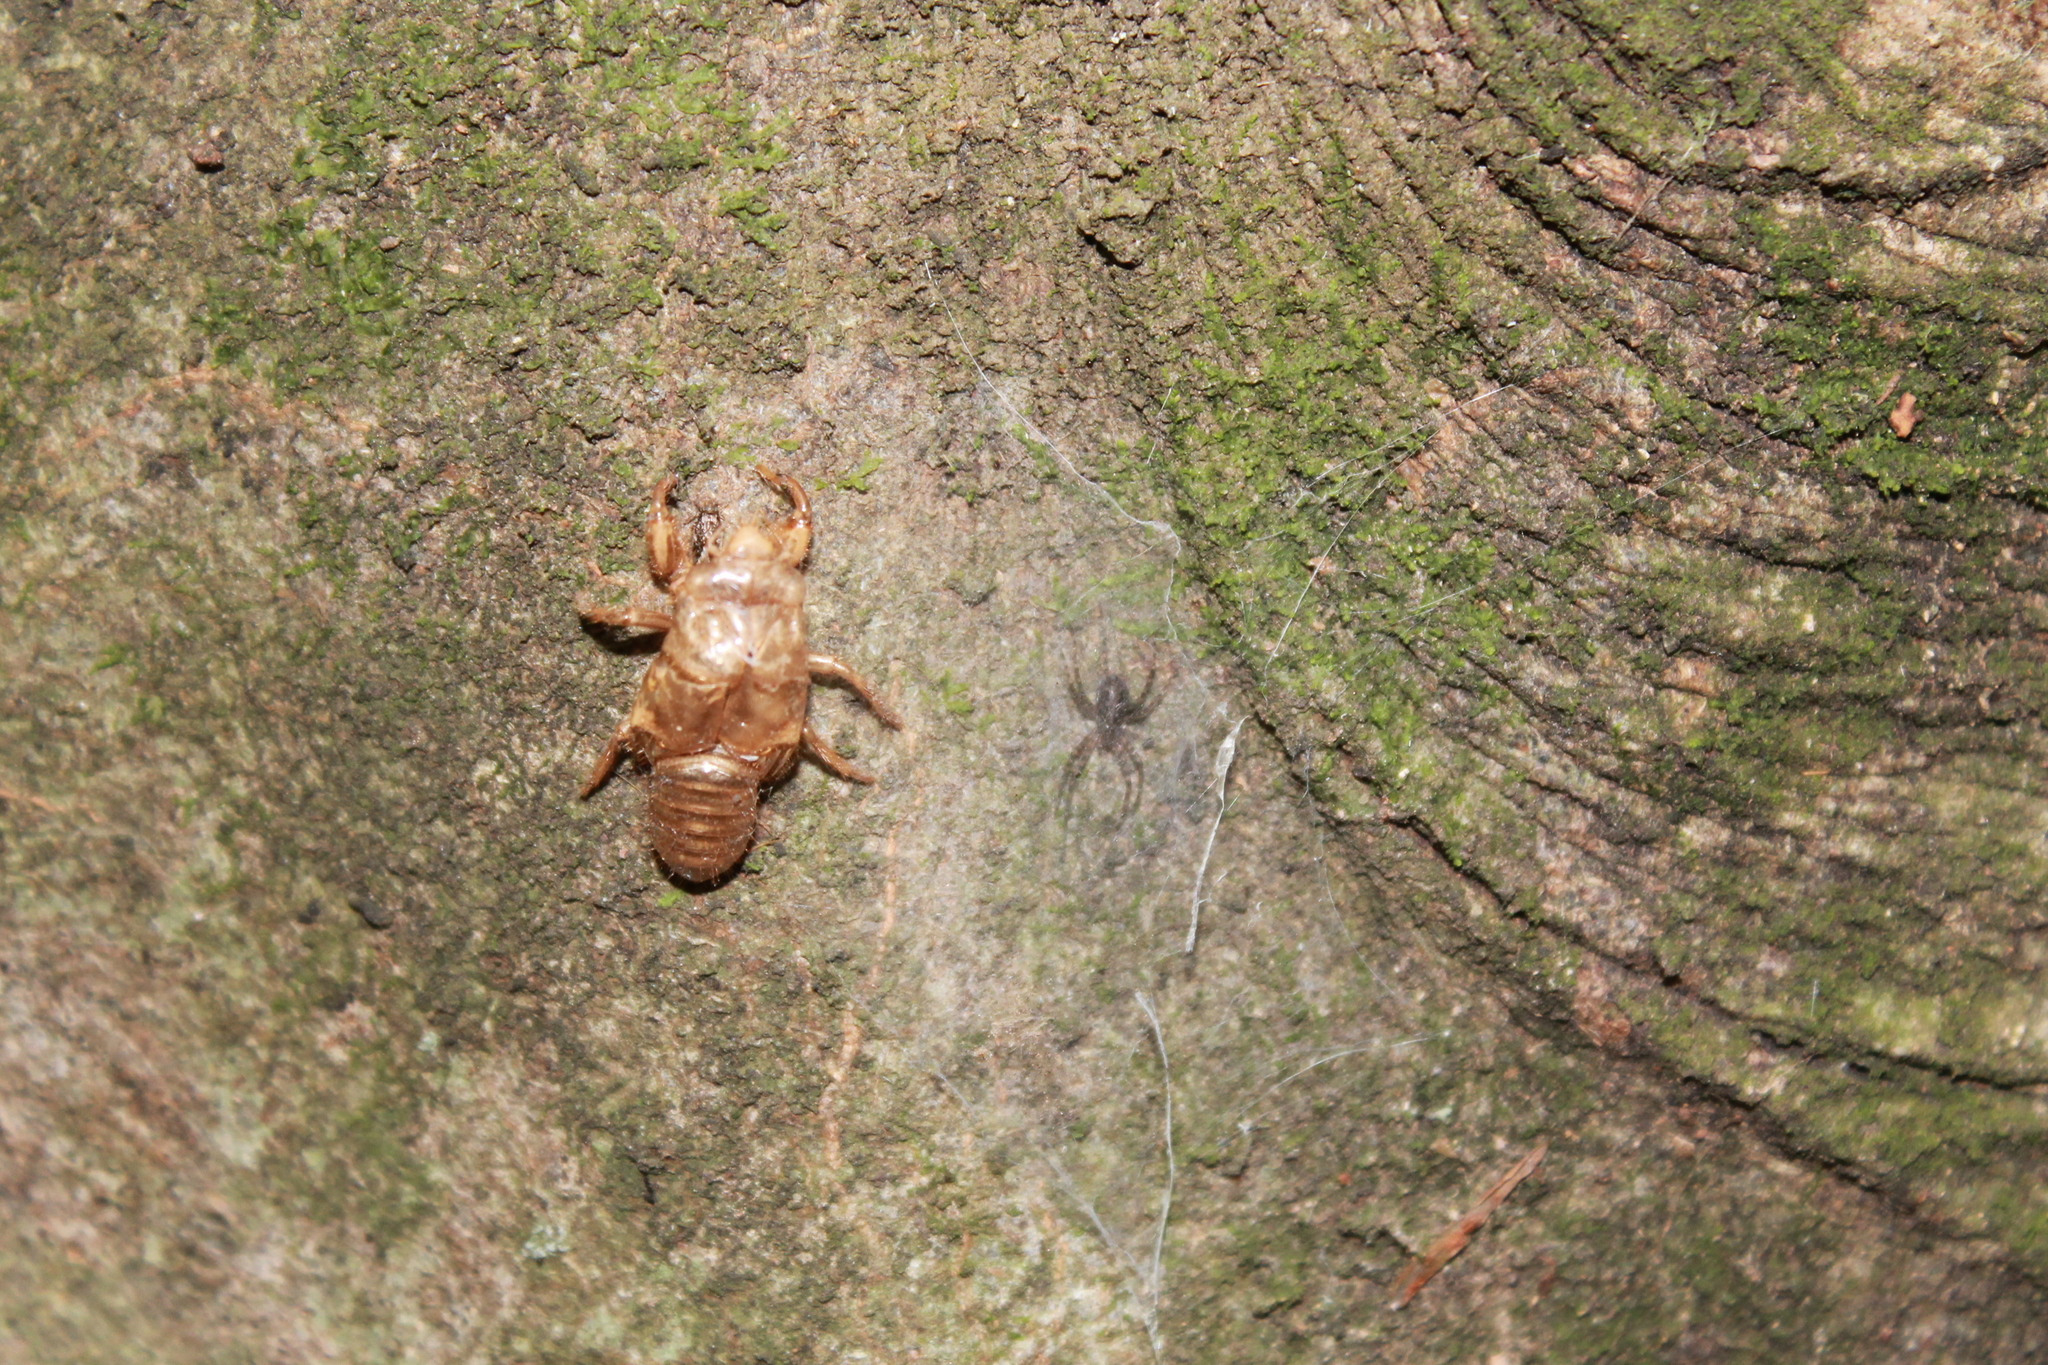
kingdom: Animalia
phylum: Arthropoda
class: Arachnida
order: Araneae
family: Stiphidiidae
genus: Stiphidion
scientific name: Stiphidion facetum
